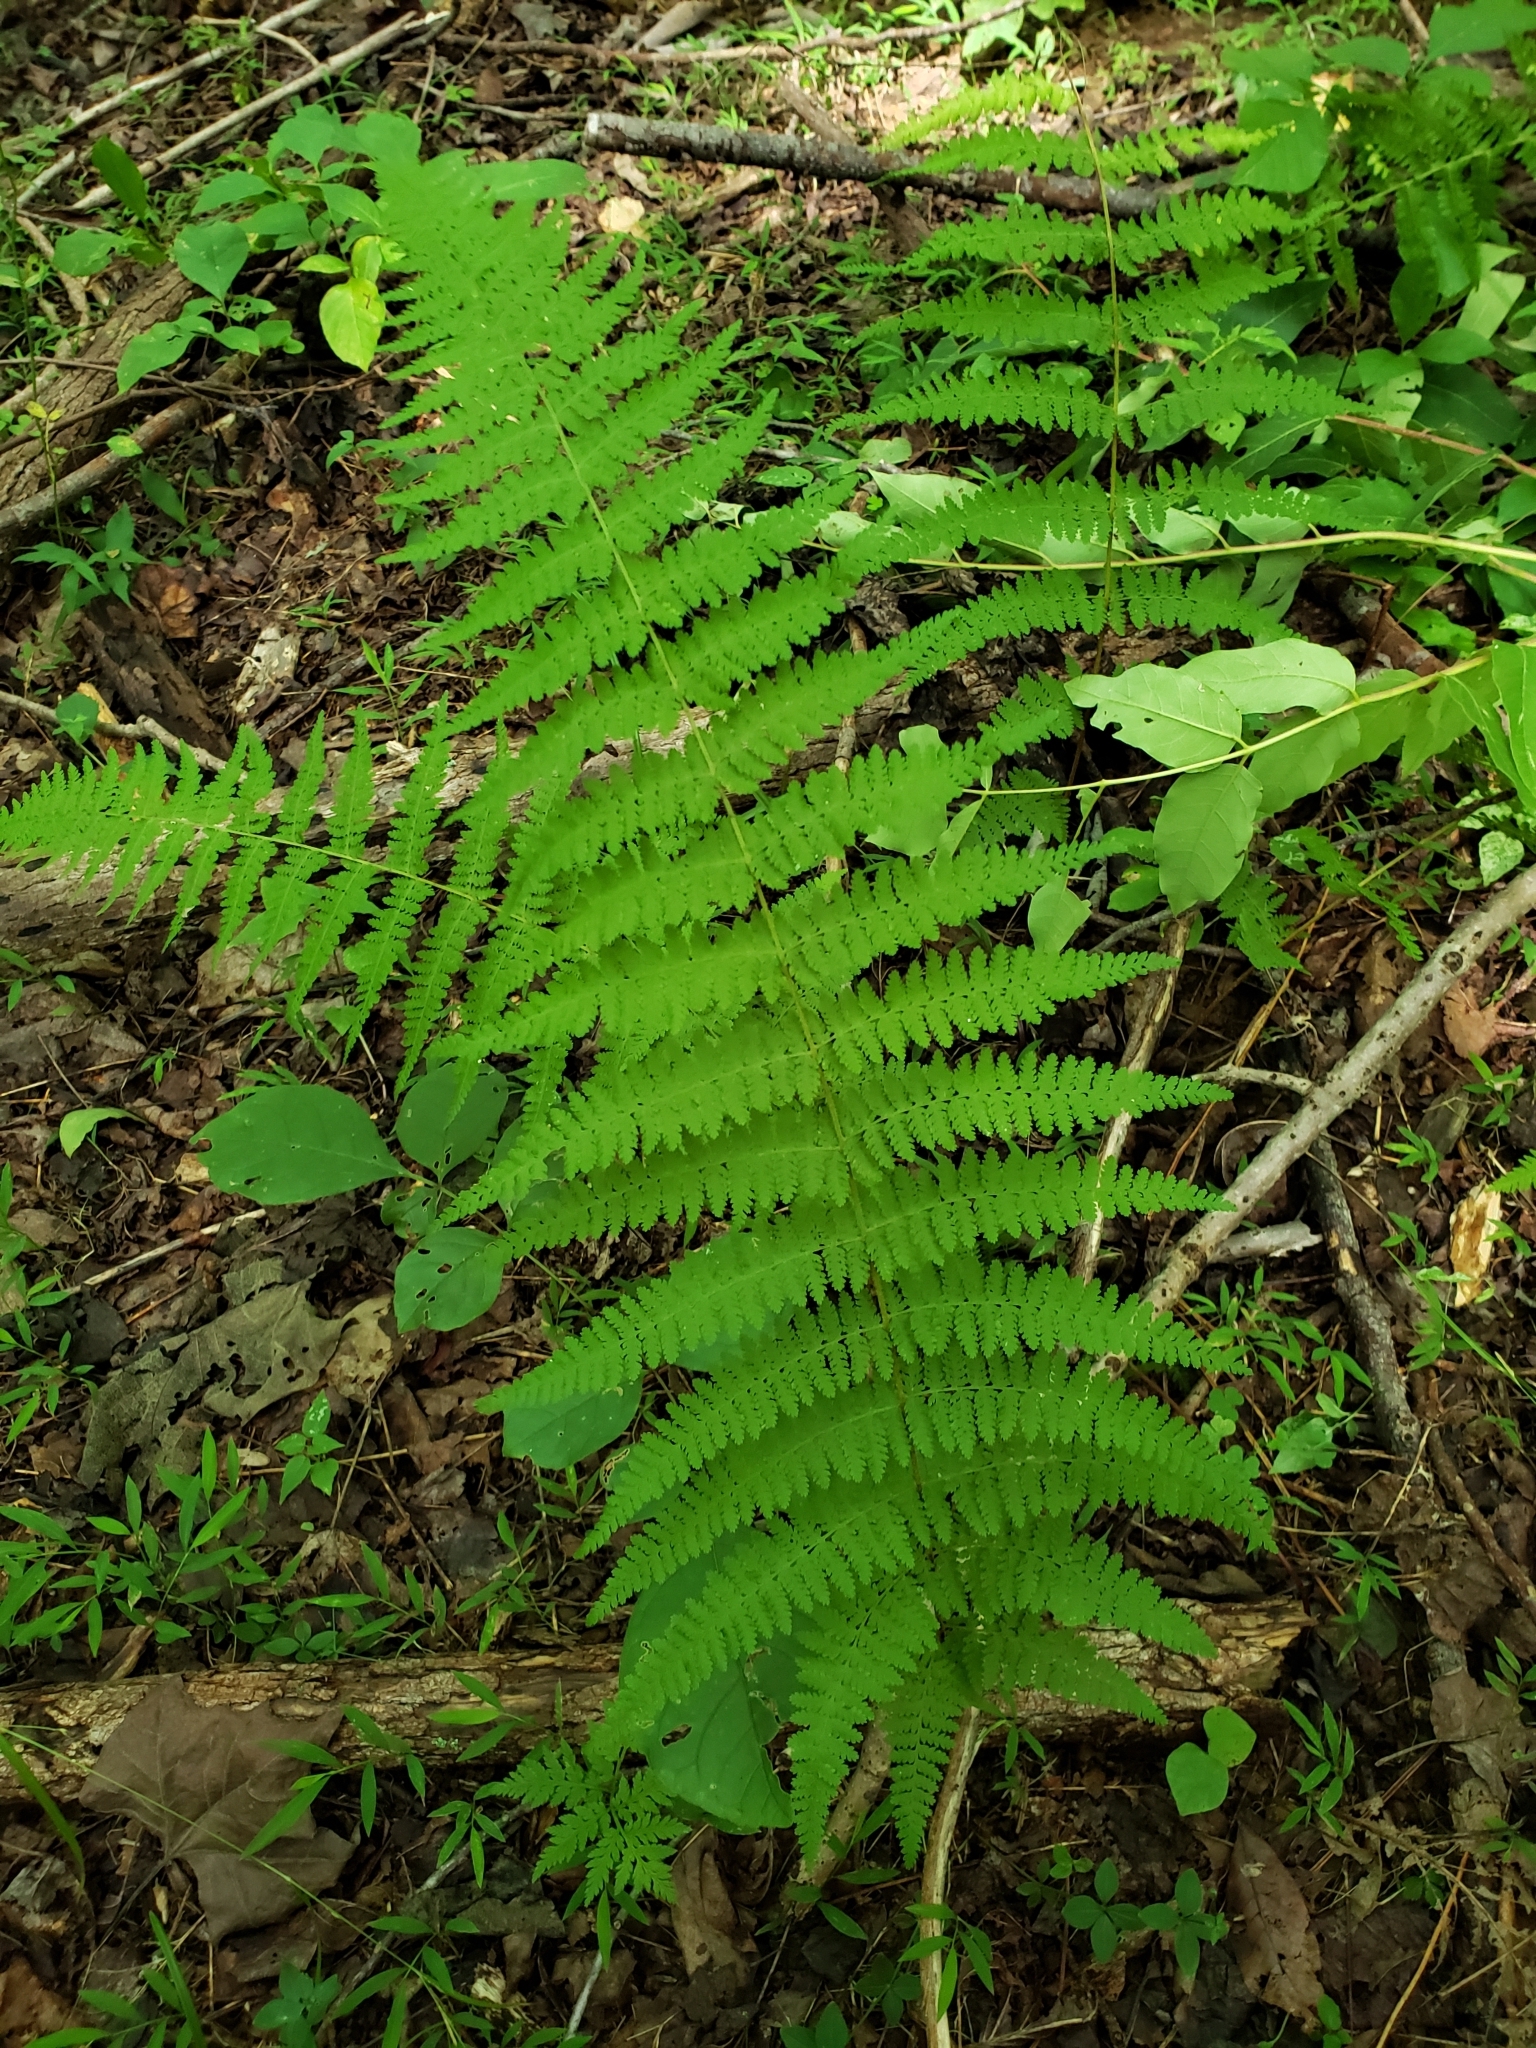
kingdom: Plantae
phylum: Tracheophyta
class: Polypodiopsida
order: Polypodiales
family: Dennstaedtiaceae
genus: Sitobolium
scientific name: Sitobolium punctilobum
